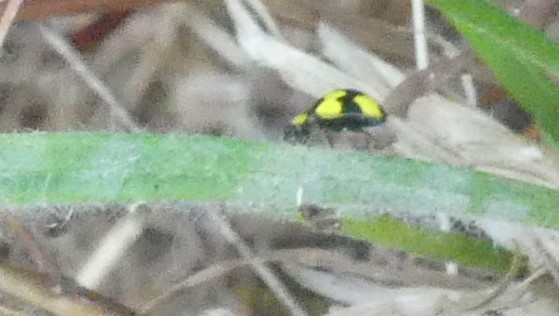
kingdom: Animalia
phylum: Arthropoda
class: Insecta
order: Coleoptera
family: Coccinellidae
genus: Illeis
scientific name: Illeis galbula
